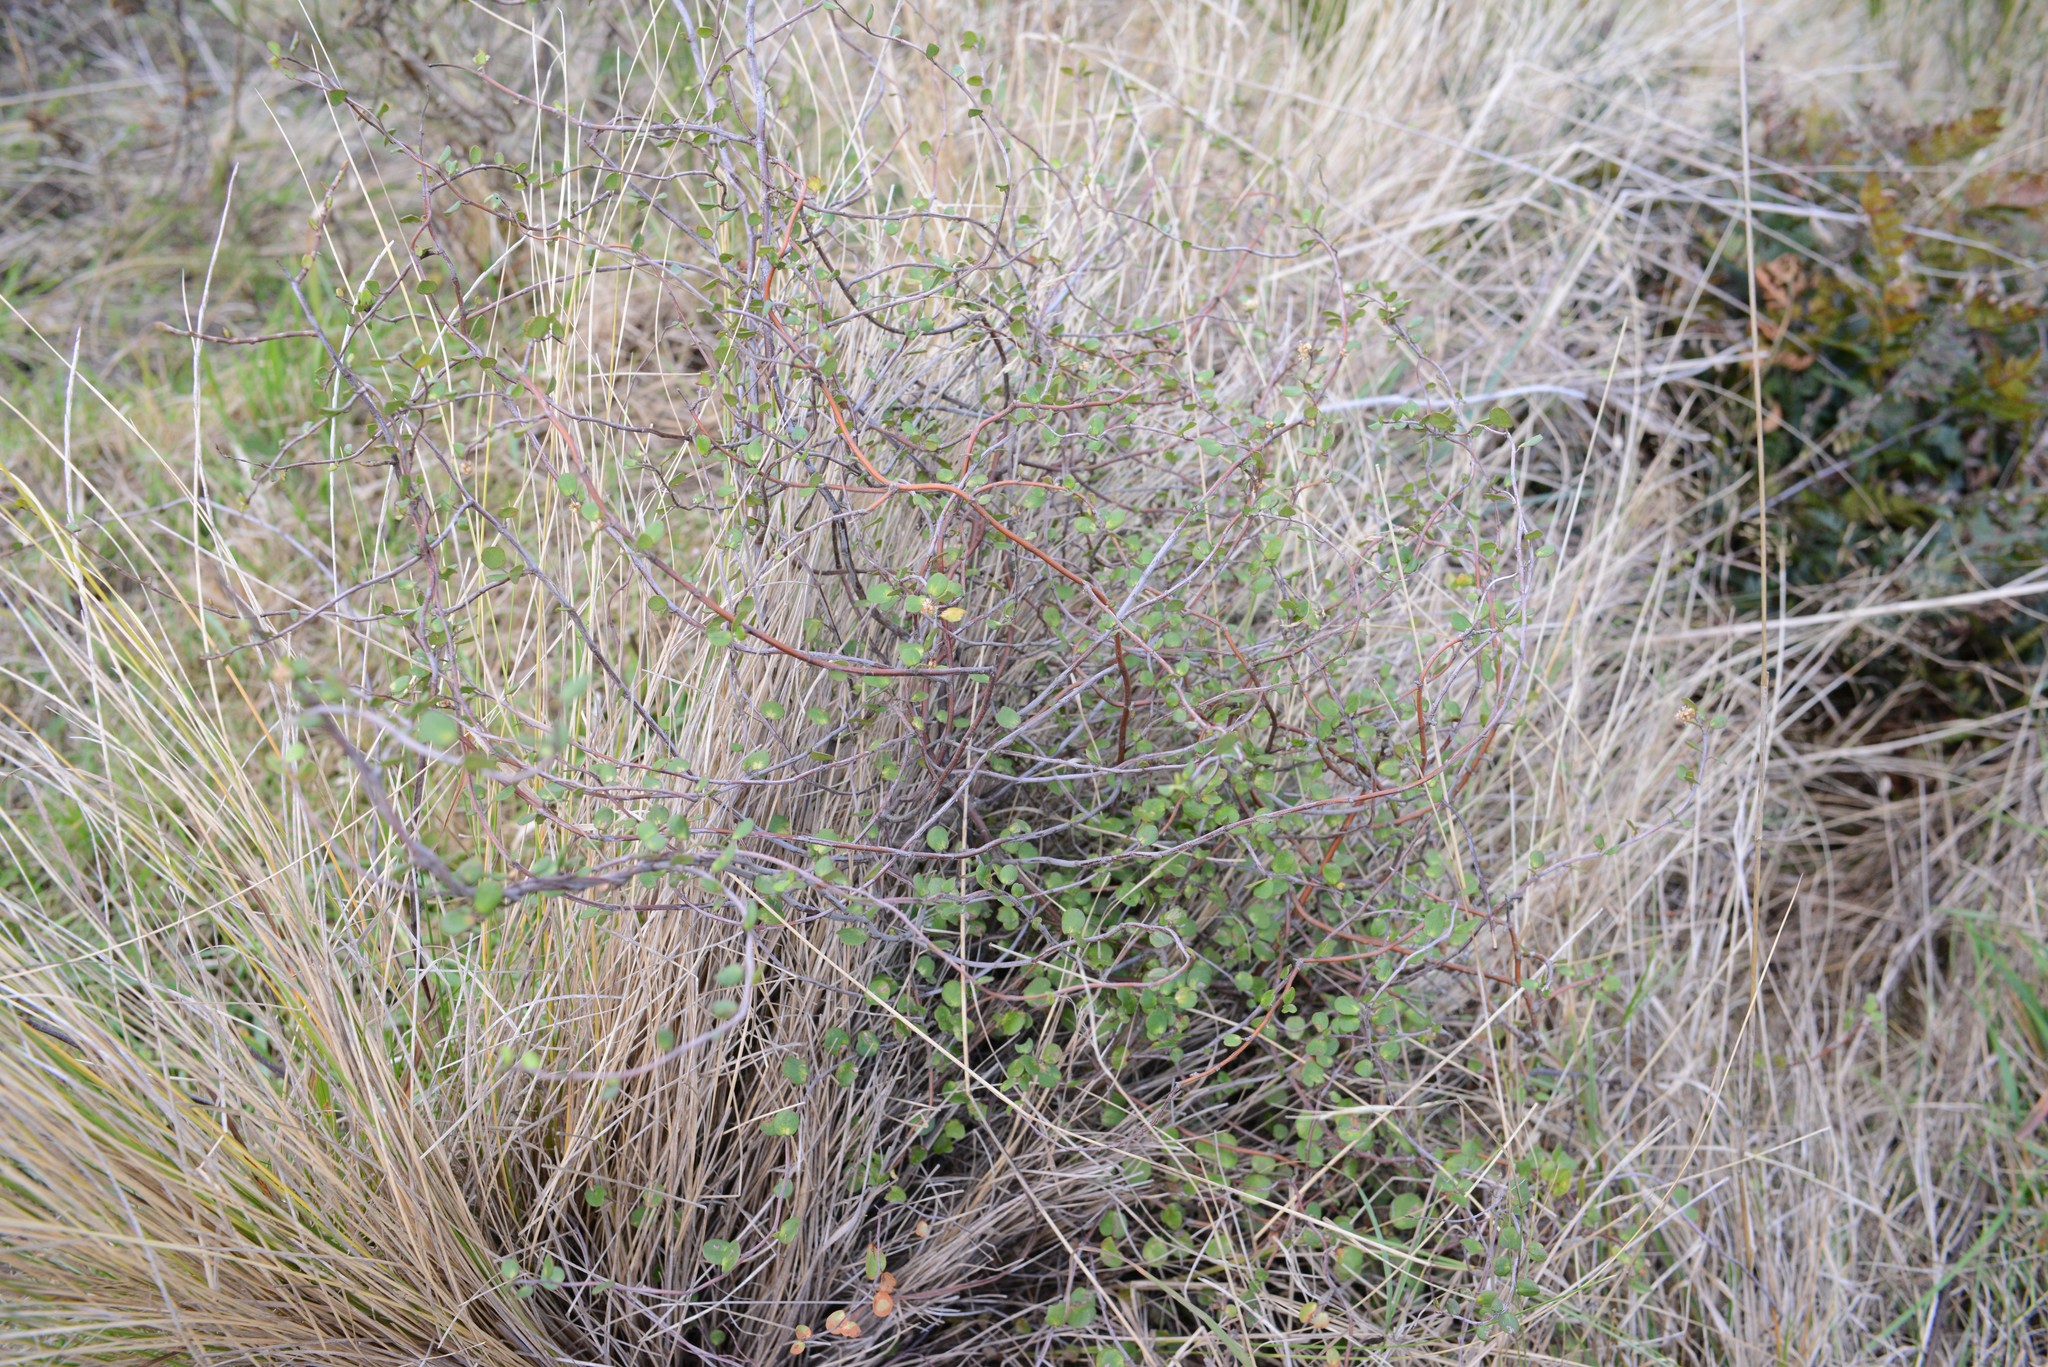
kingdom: Plantae
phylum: Tracheophyta
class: Magnoliopsida
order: Caryophyllales
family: Polygonaceae
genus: Muehlenbeckia
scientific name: Muehlenbeckia complexa
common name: Wireplant
